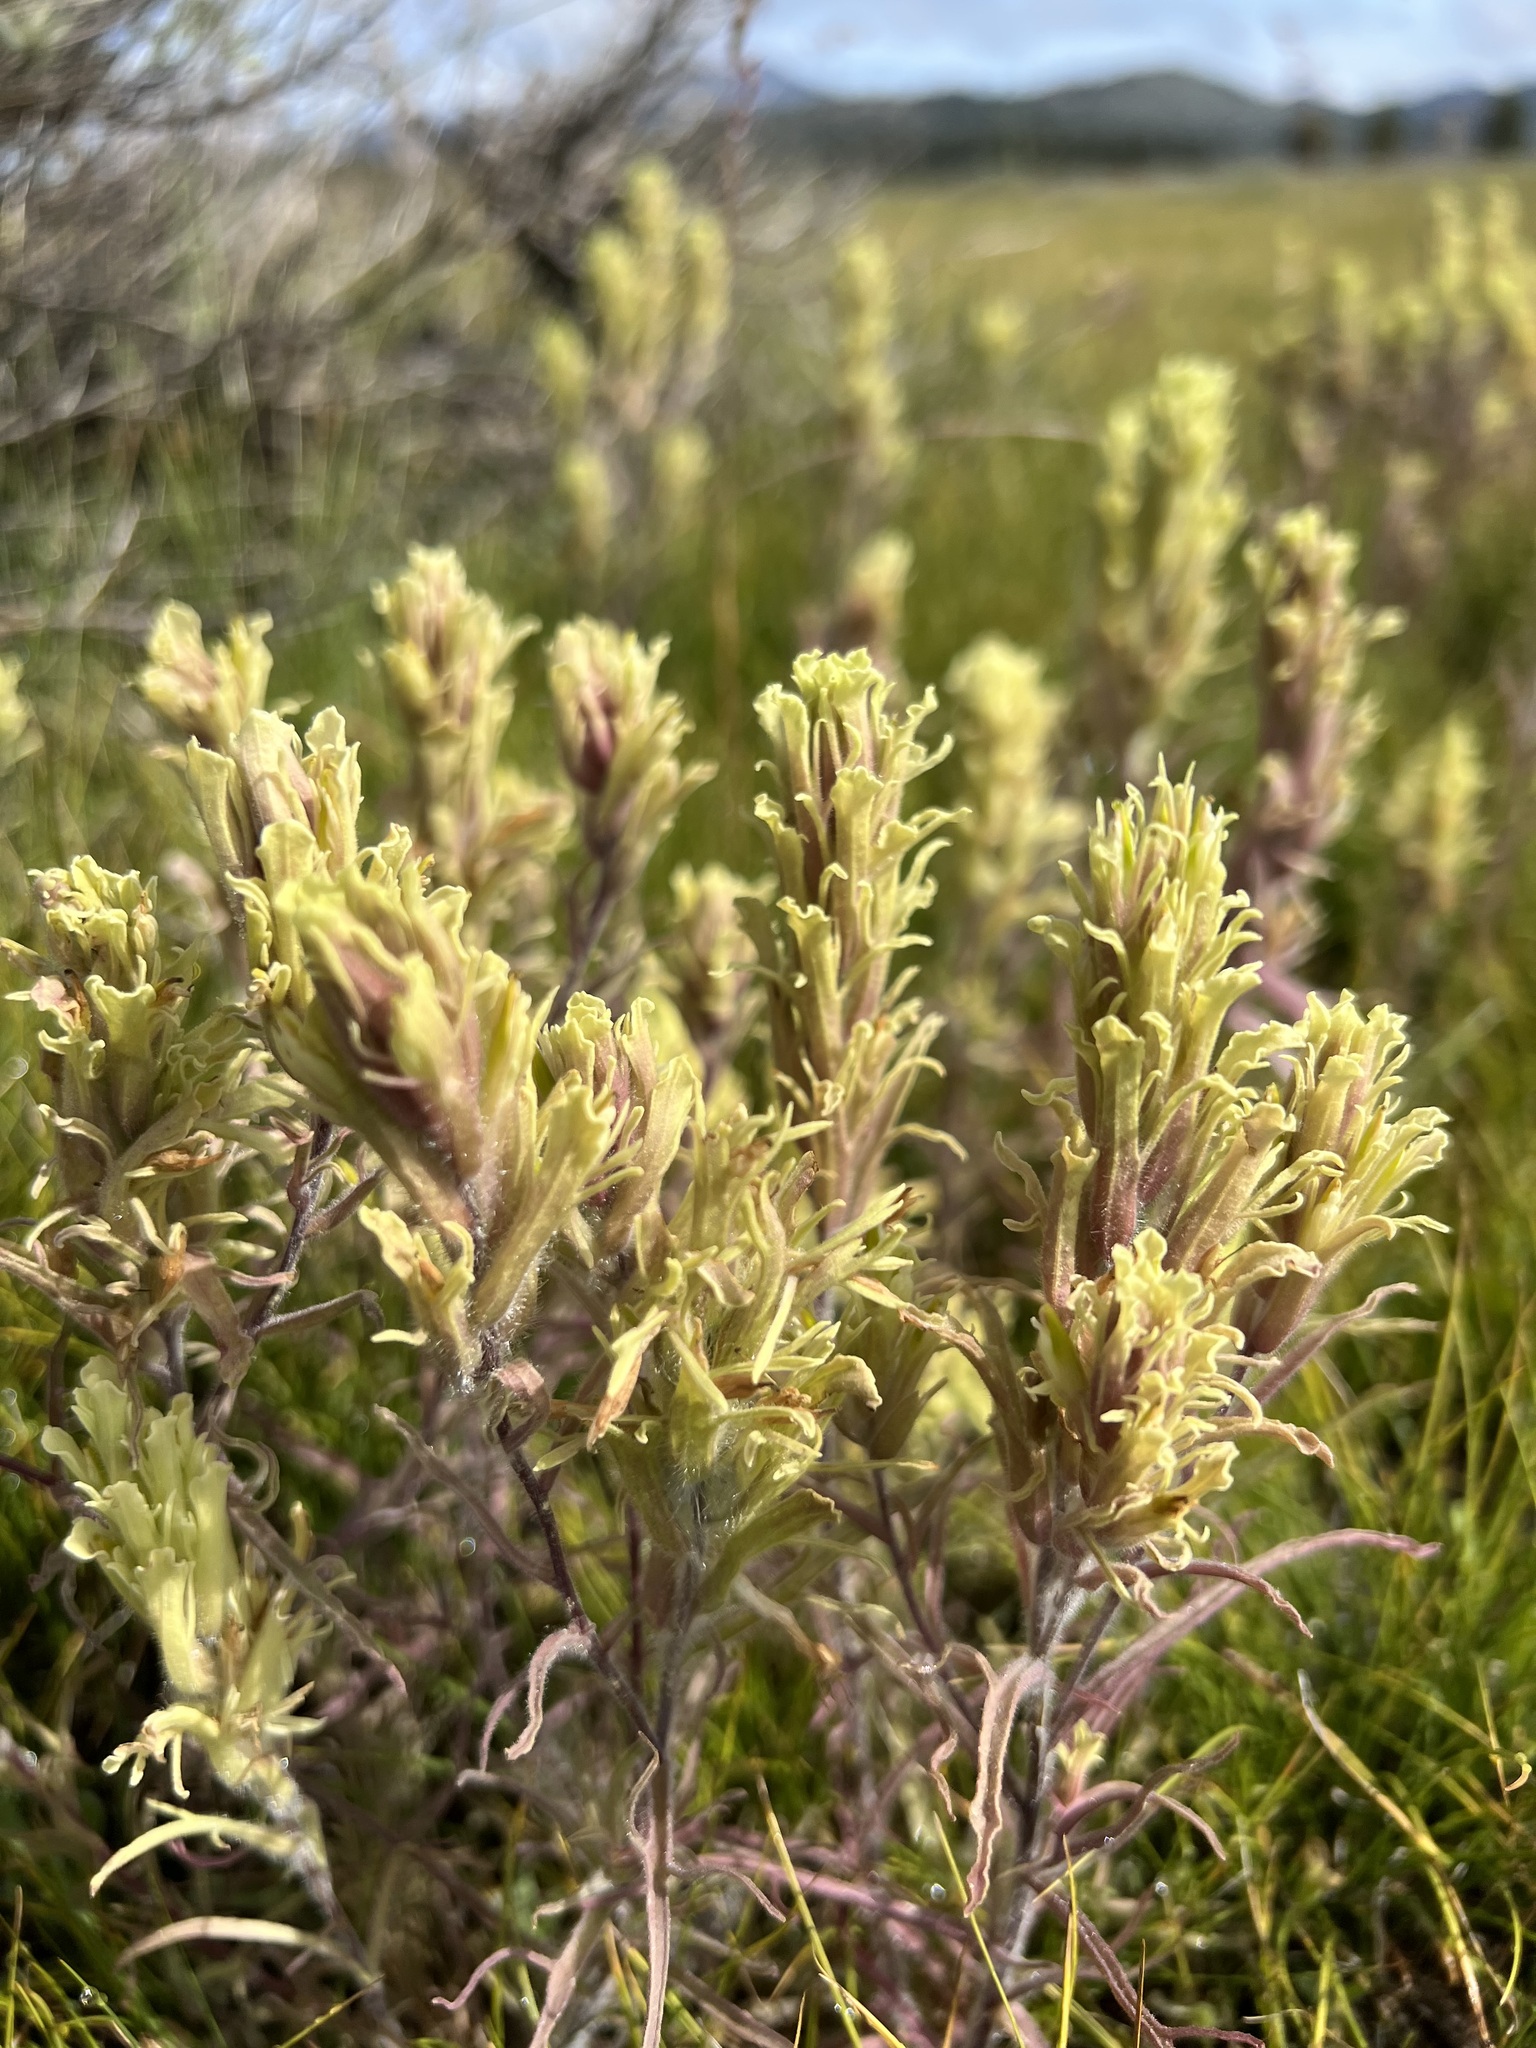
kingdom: Plantae
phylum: Tracheophyta
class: Magnoliopsida
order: Lamiales
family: Orobanchaceae
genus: Castilleja
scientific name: Castilleja pilosa
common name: Hairy paintbrush
